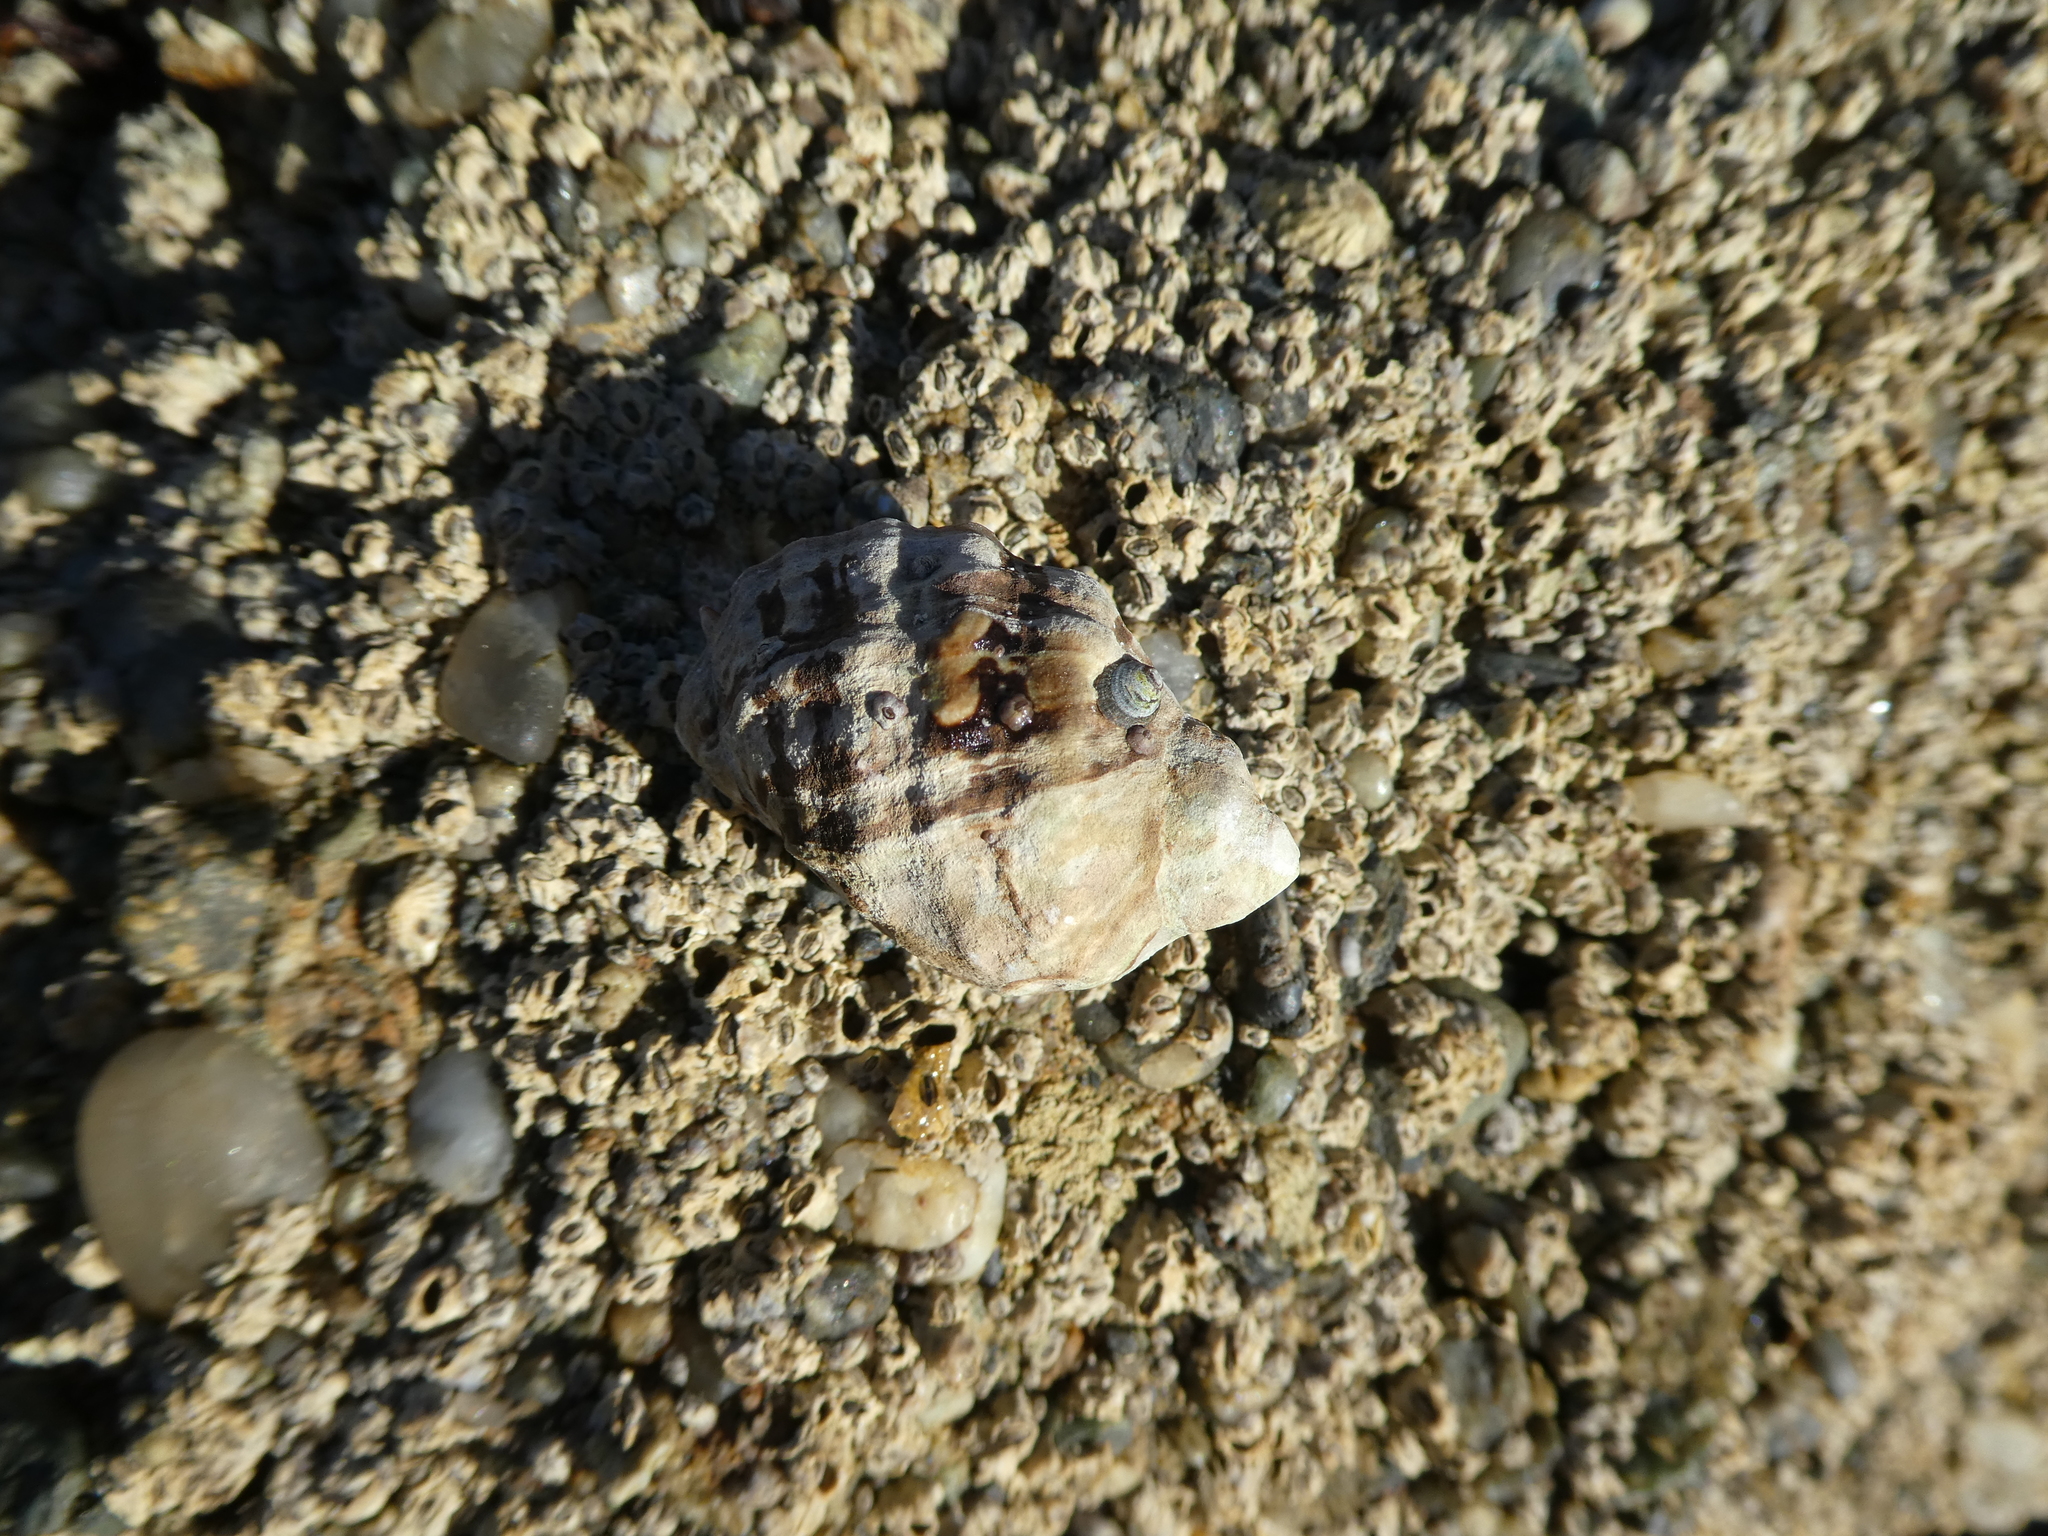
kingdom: Animalia
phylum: Mollusca
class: Gastropoda
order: Neogastropoda
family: Muricidae
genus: Mexacanthina
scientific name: Mexacanthina lugubris
